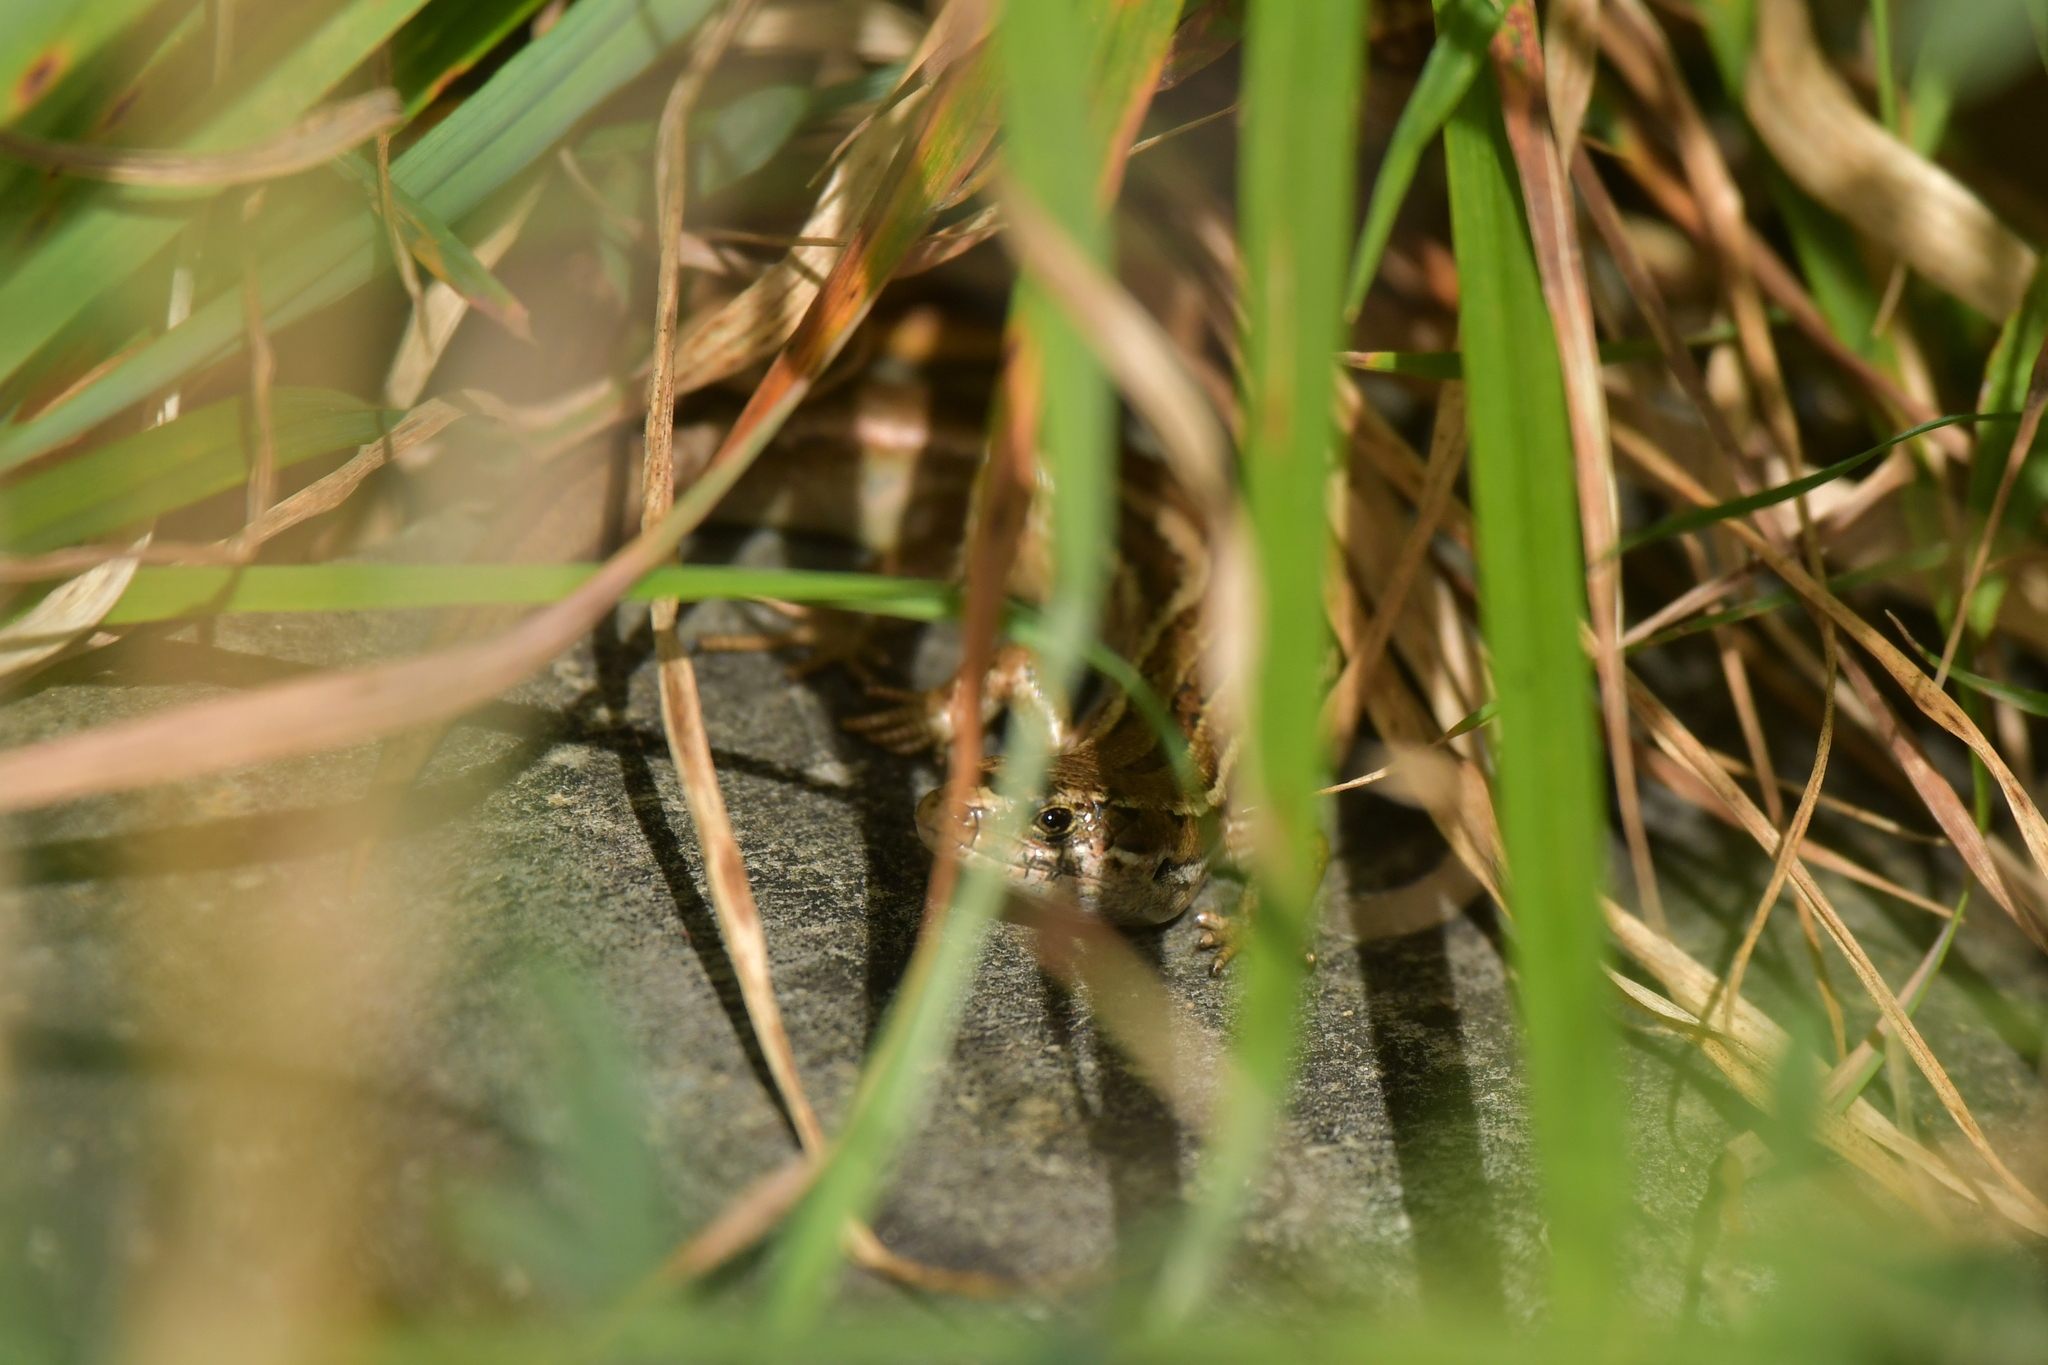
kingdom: Animalia
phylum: Chordata
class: Squamata
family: Scincidae
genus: Oligosoma
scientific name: Oligosoma polychroma
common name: Common new zealand skink
